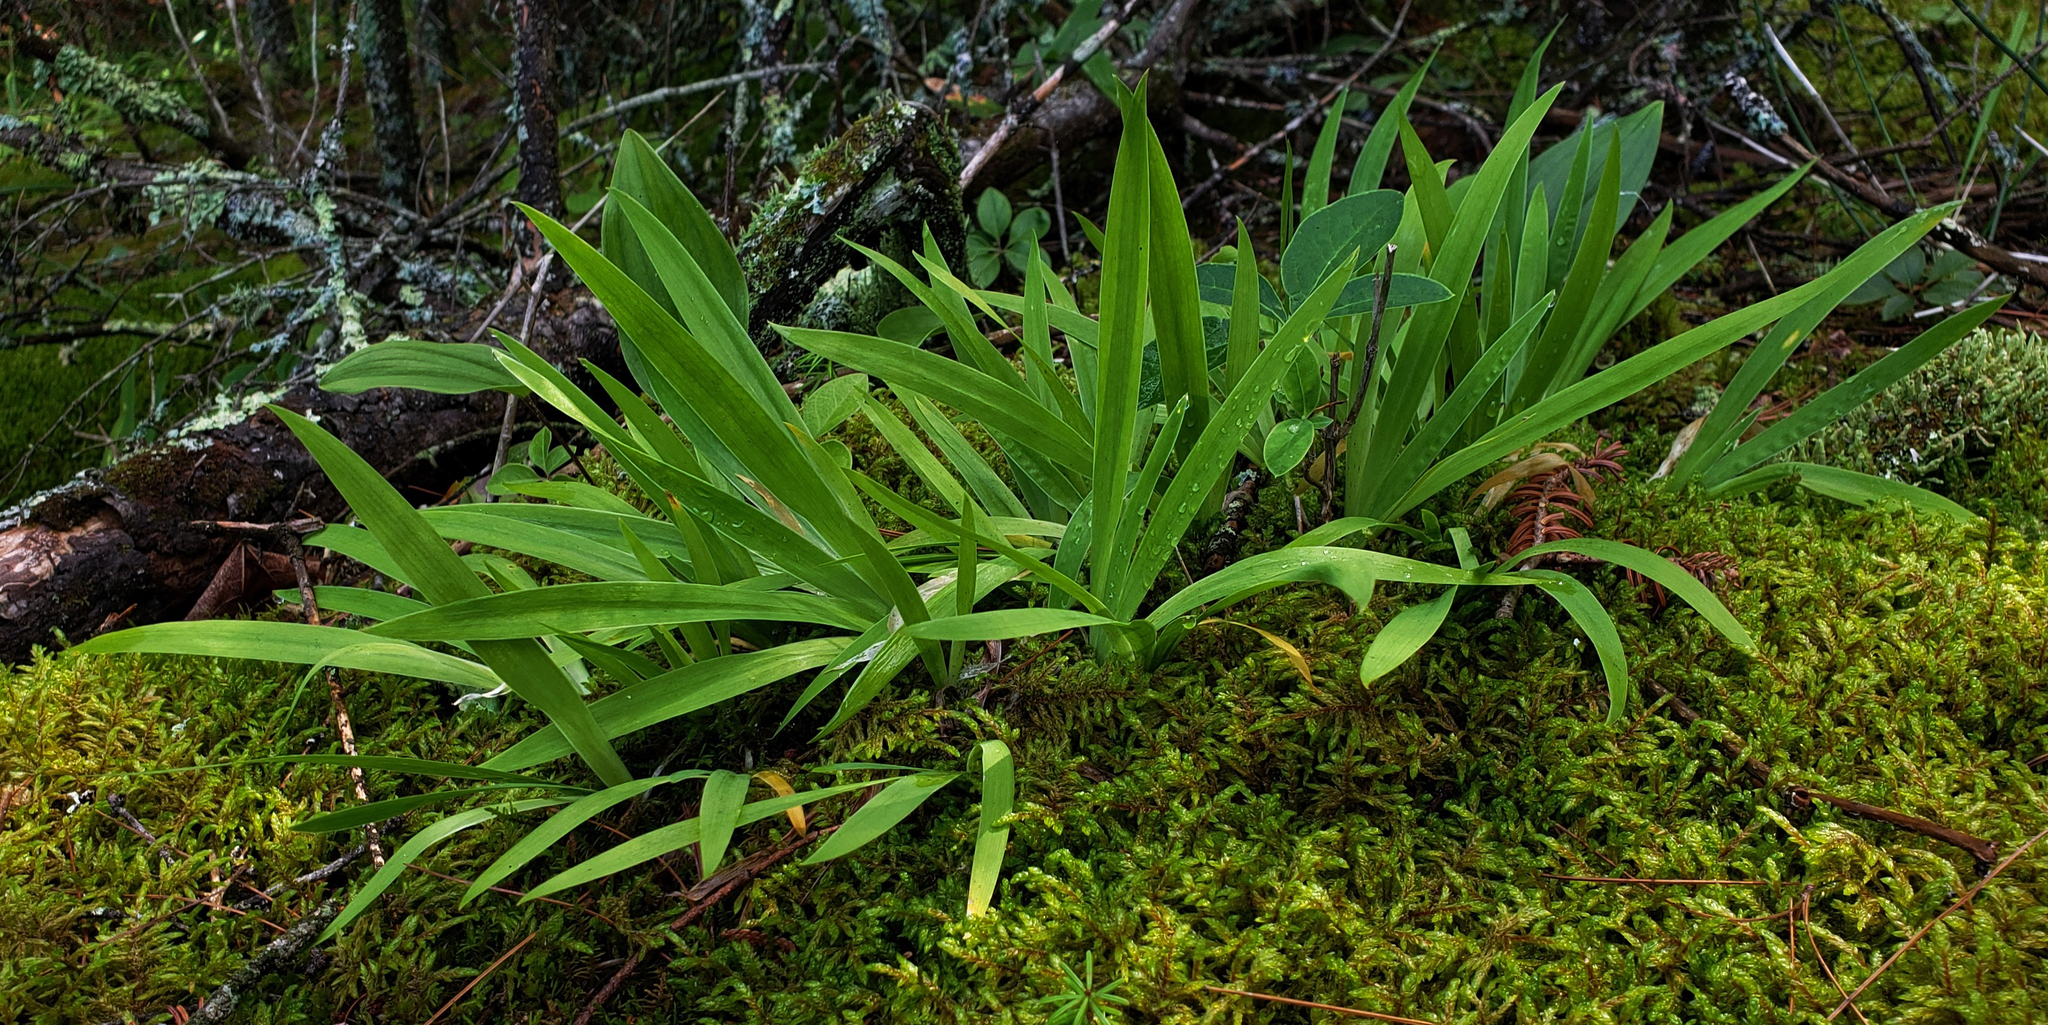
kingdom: Plantae
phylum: Tracheophyta
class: Liliopsida
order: Asparagales
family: Iridaceae
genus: Iris
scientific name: Iris lacustris
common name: Dwarf lake iris
